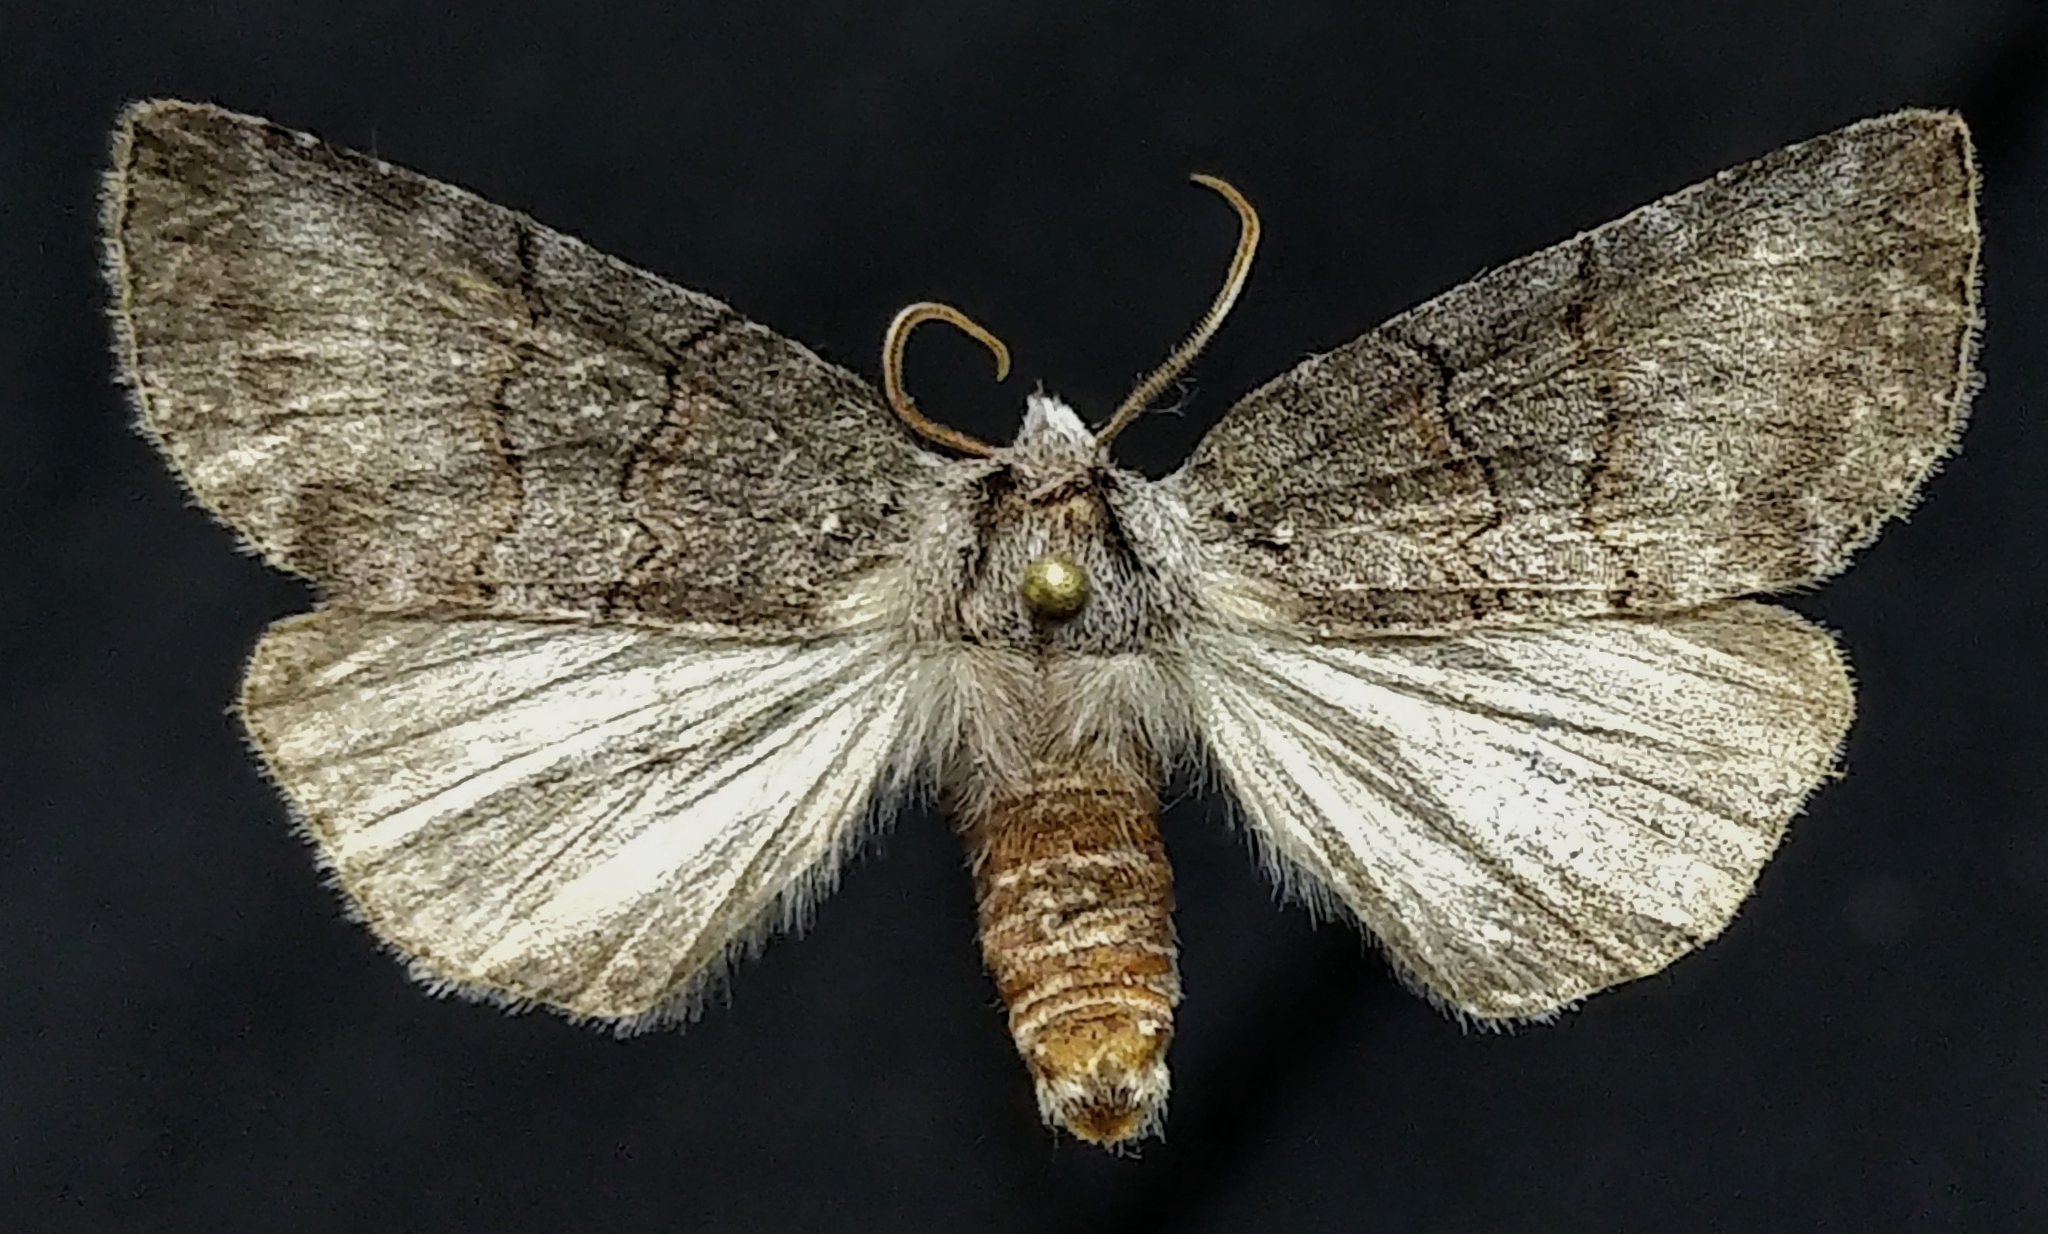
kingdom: Animalia
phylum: Arthropoda
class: Insecta
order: Lepidoptera
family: Drepanidae
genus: Ceranemota
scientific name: Ceranemota albertae
